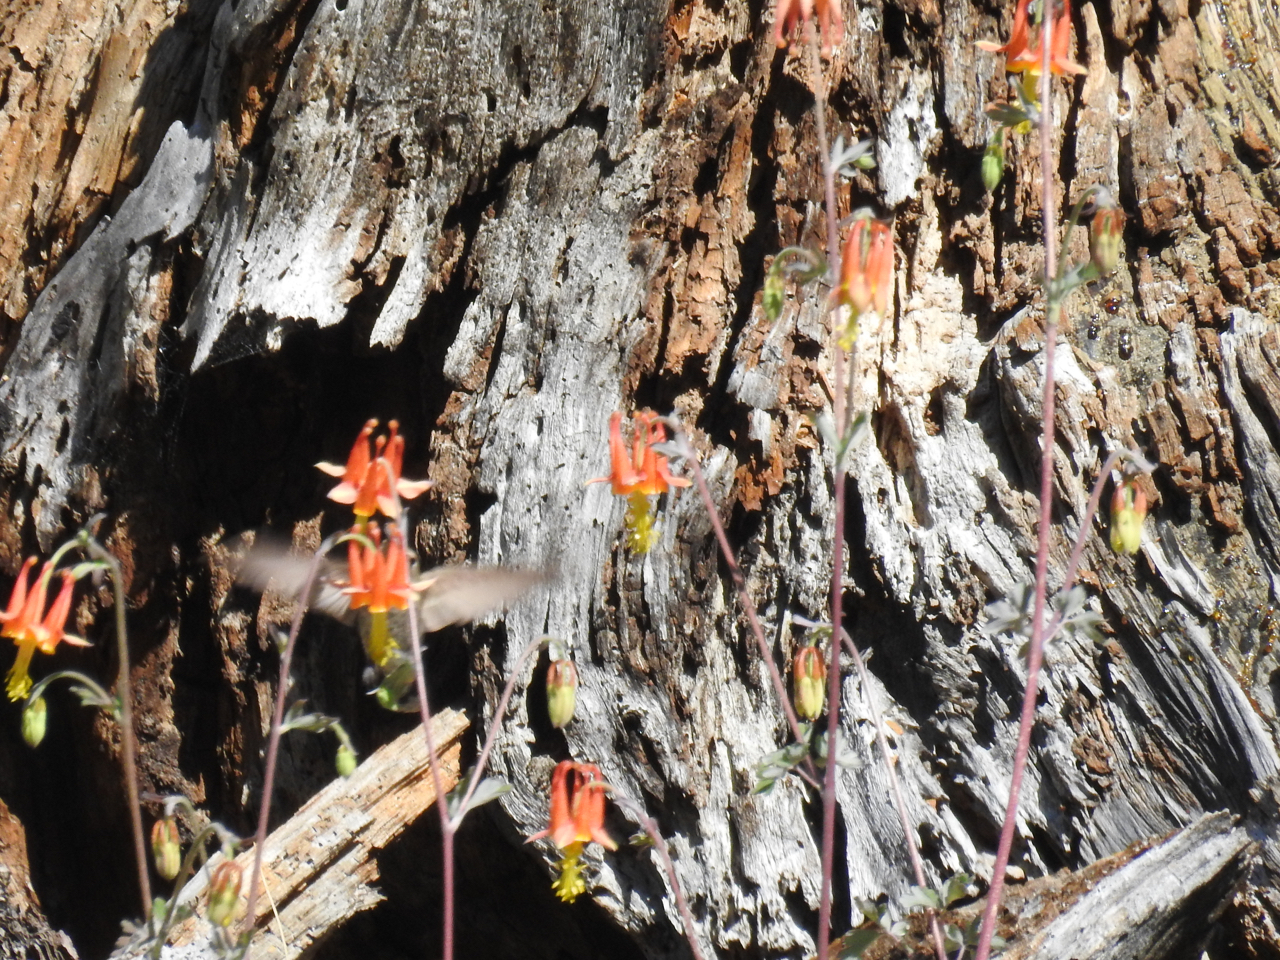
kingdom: Animalia
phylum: Chordata
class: Aves
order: Apodiformes
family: Trochilidae
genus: Calypte
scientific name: Calypte
